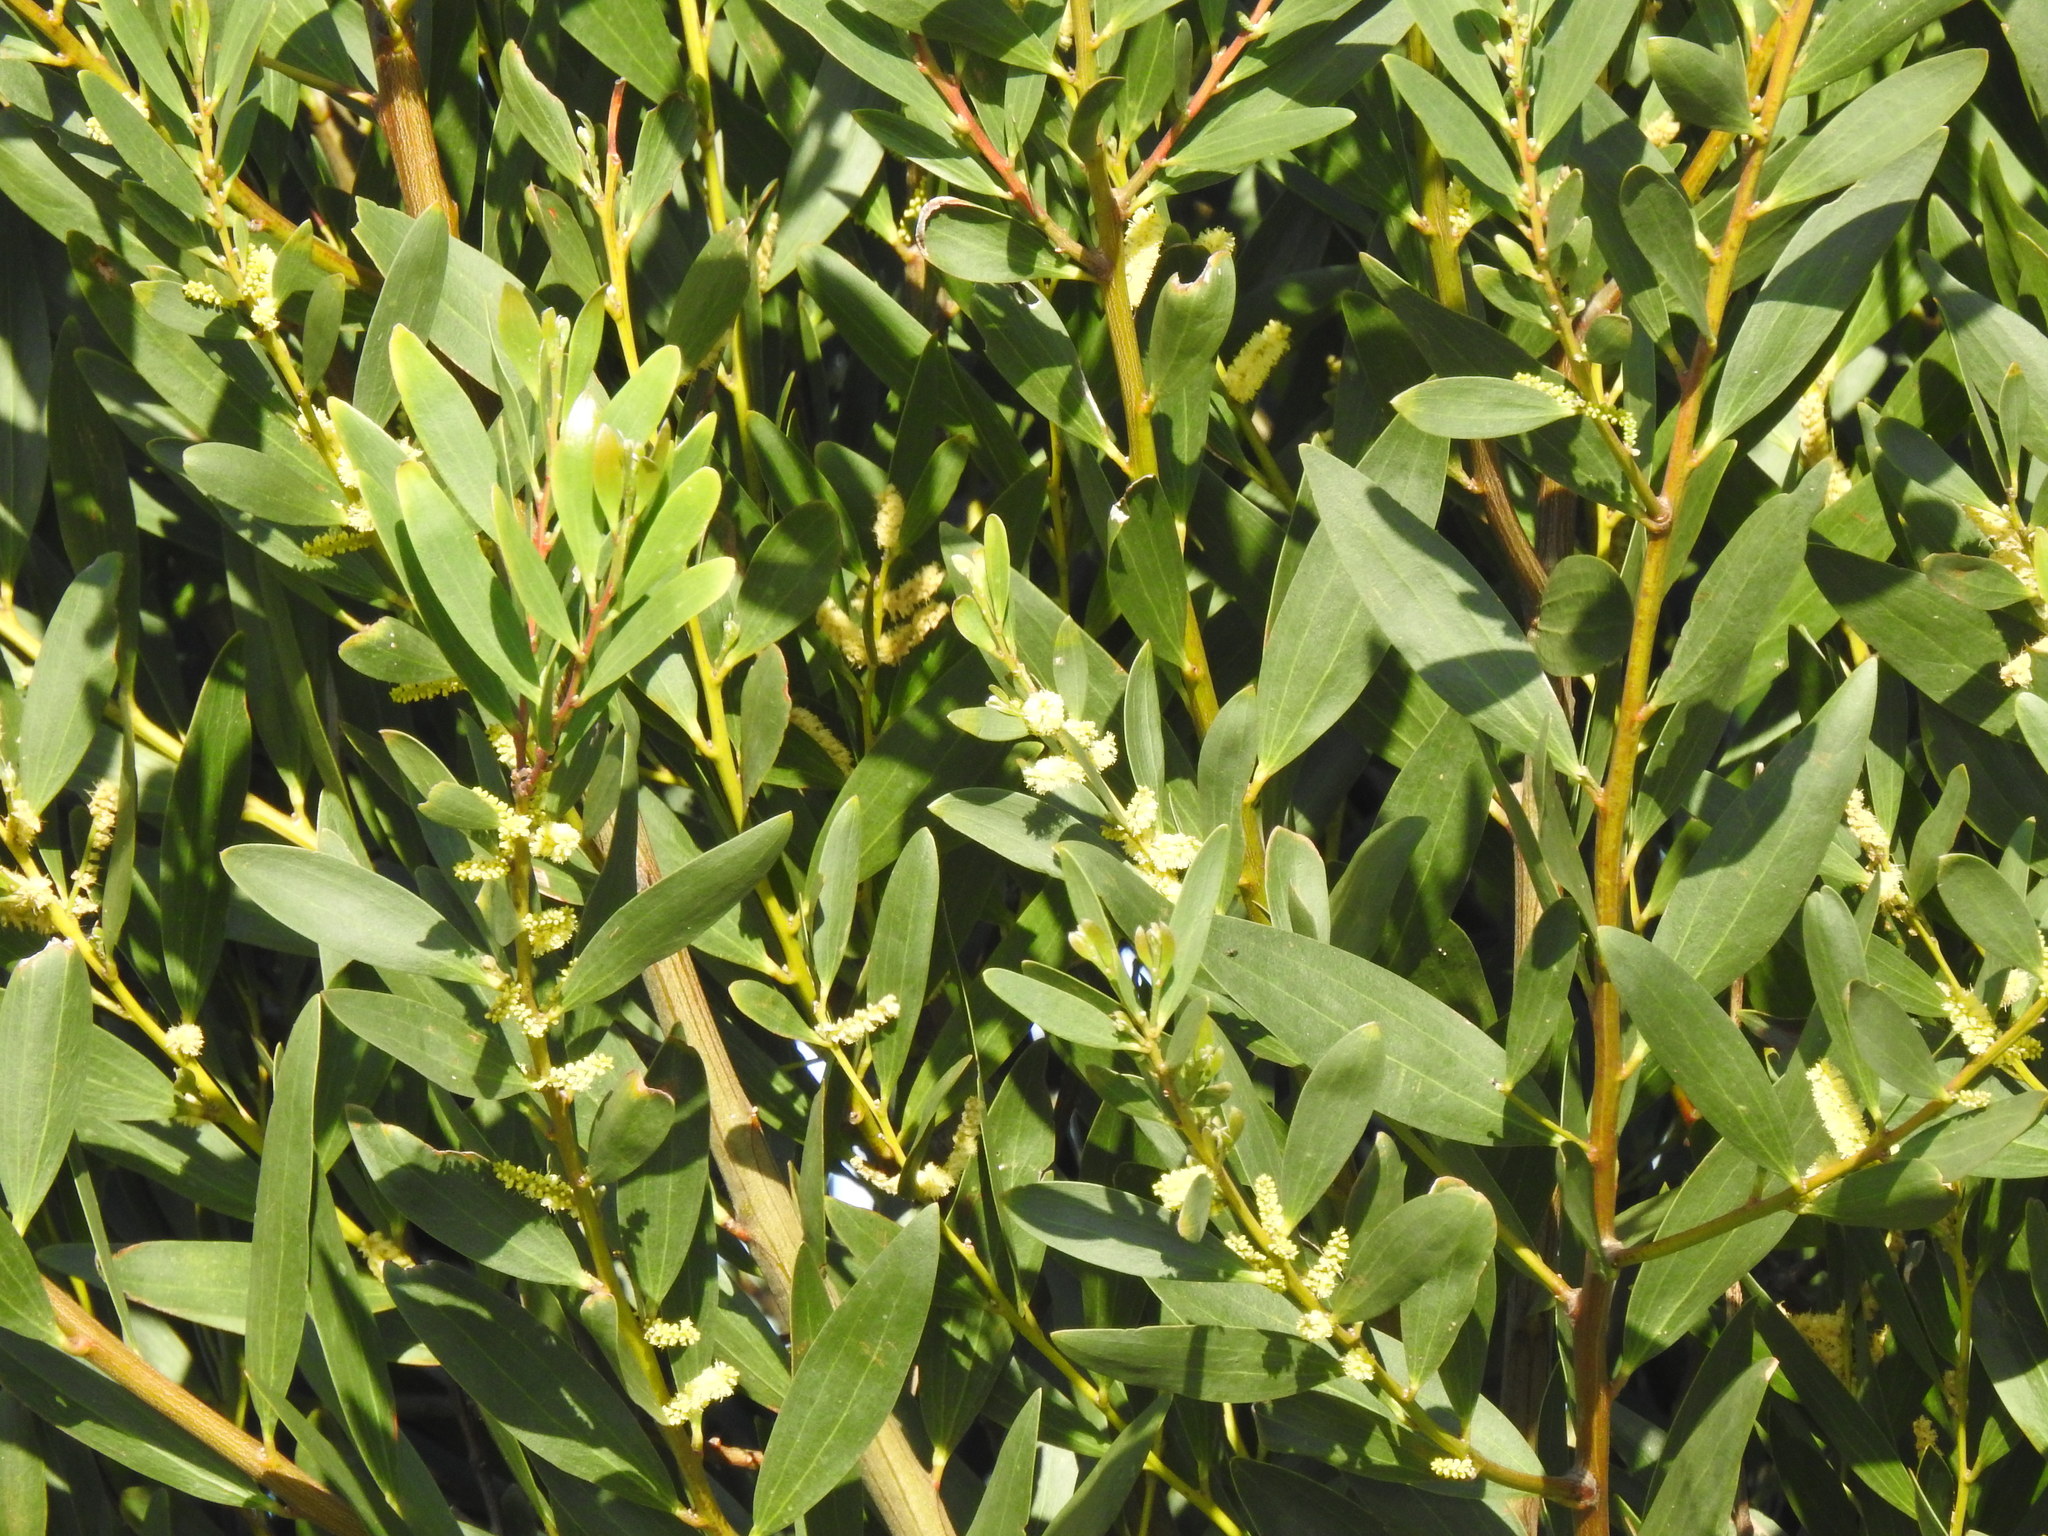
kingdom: Plantae
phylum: Tracheophyta
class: Magnoliopsida
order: Fabales
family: Fabaceae
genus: Acacia
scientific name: Acacia longifolia
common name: Sydney golden wattle
